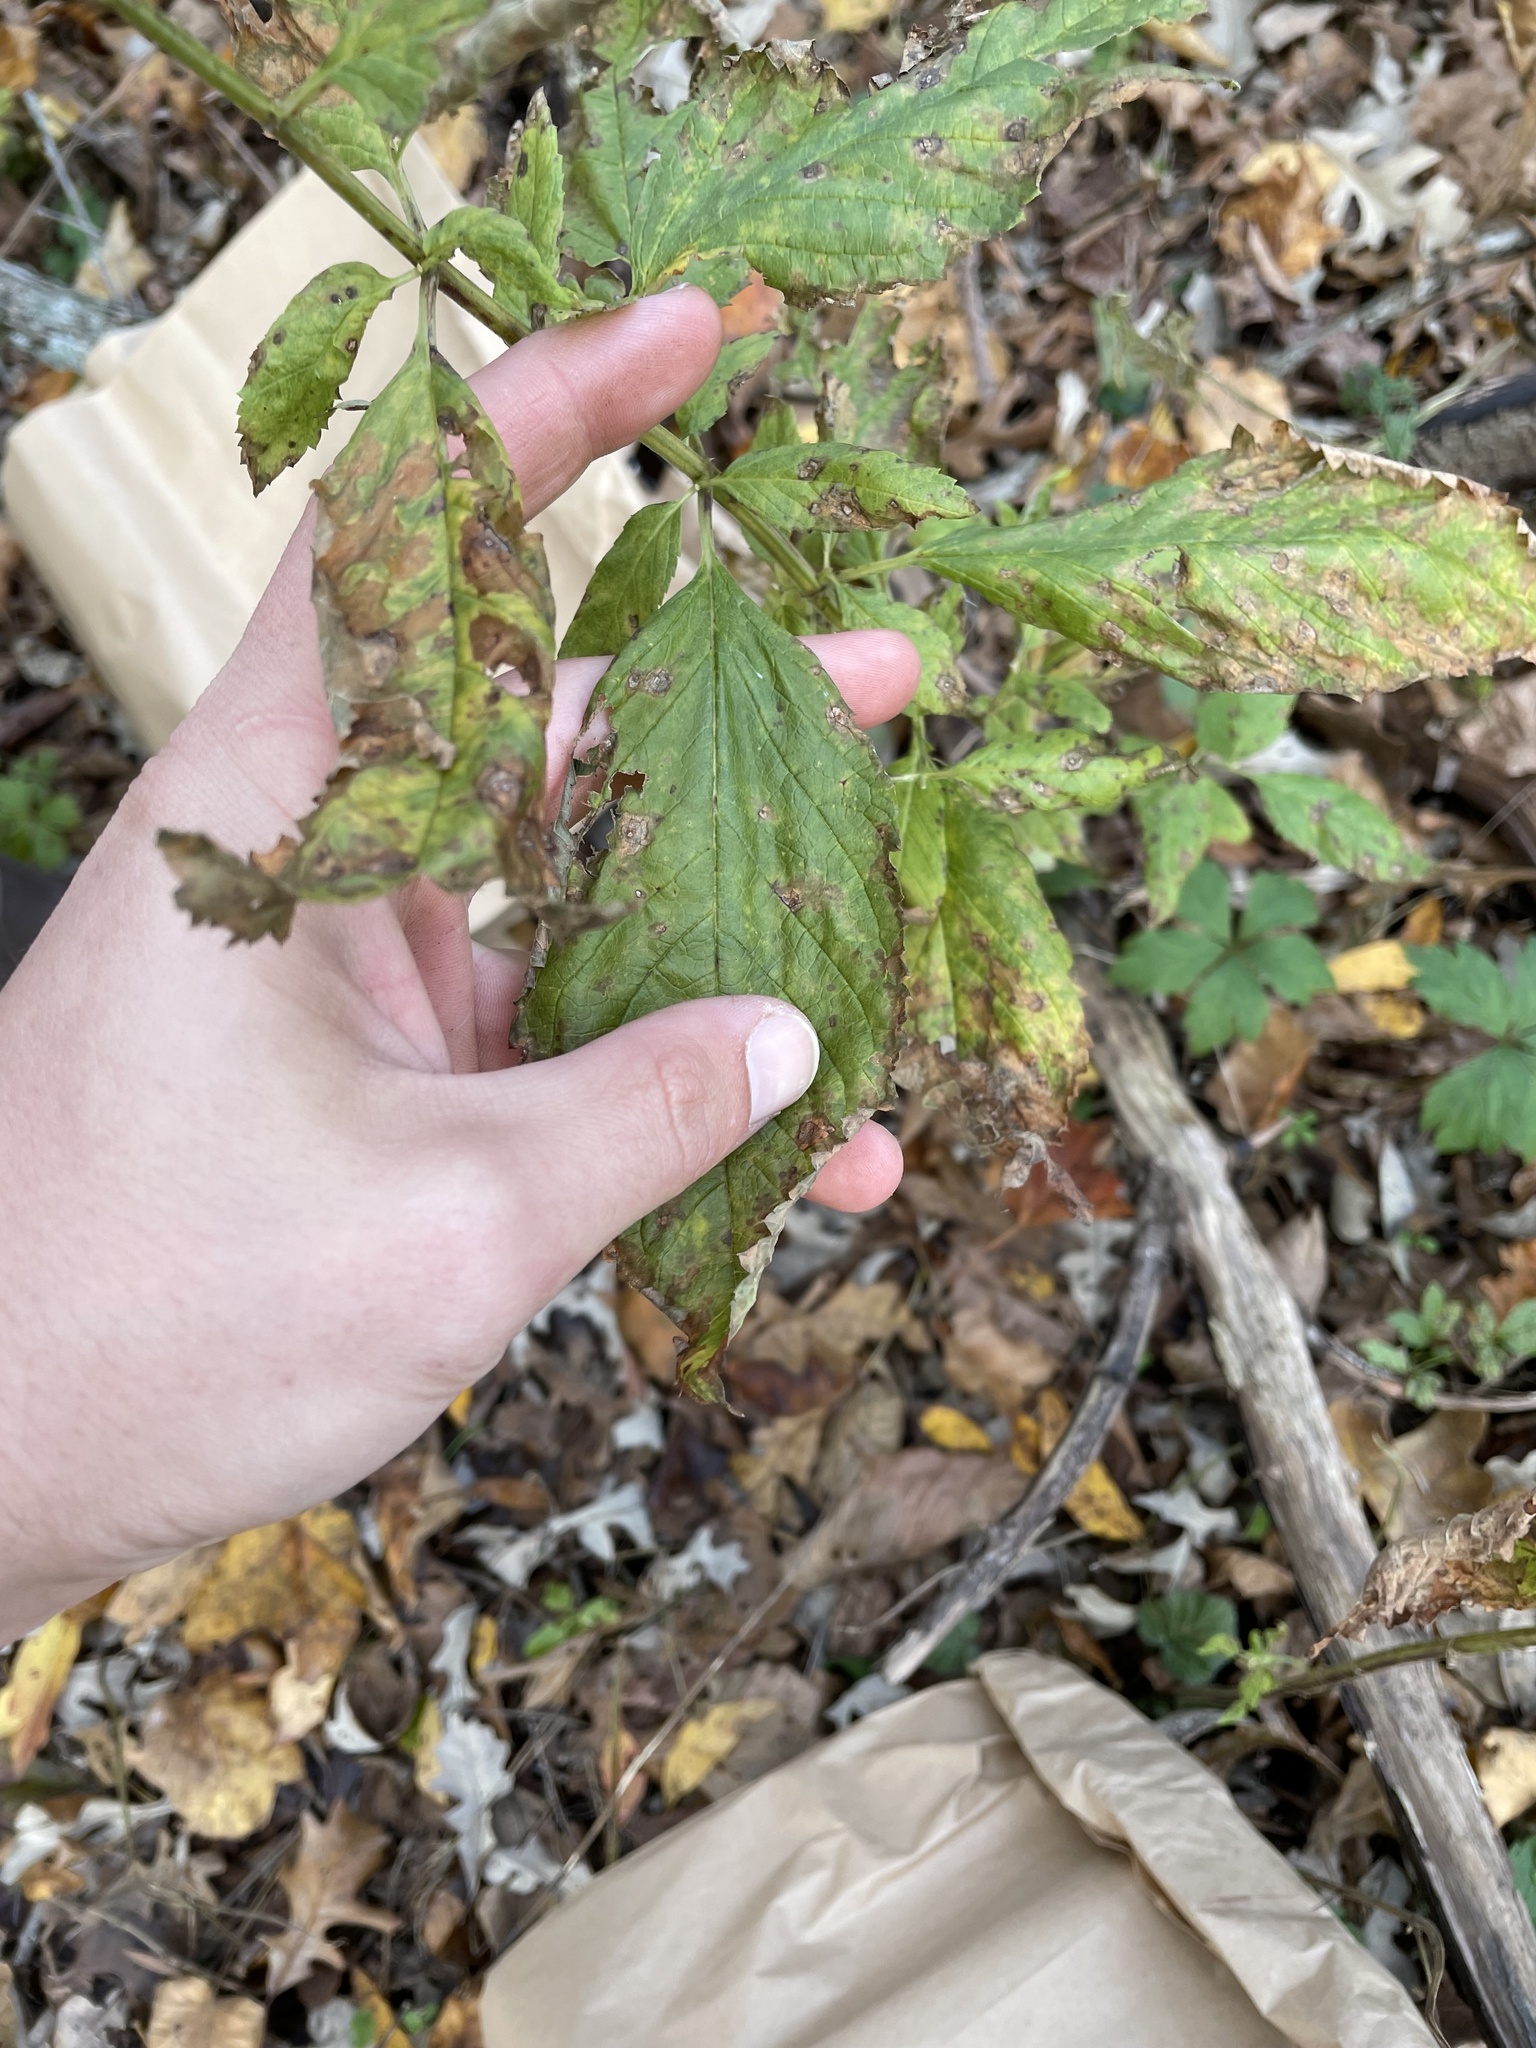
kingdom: Plantae
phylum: Tracheophyta
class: Magnoliopsida
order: Lamiales
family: Lamiaceae
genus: Teucrium
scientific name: Teucrium canadense
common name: American germander
